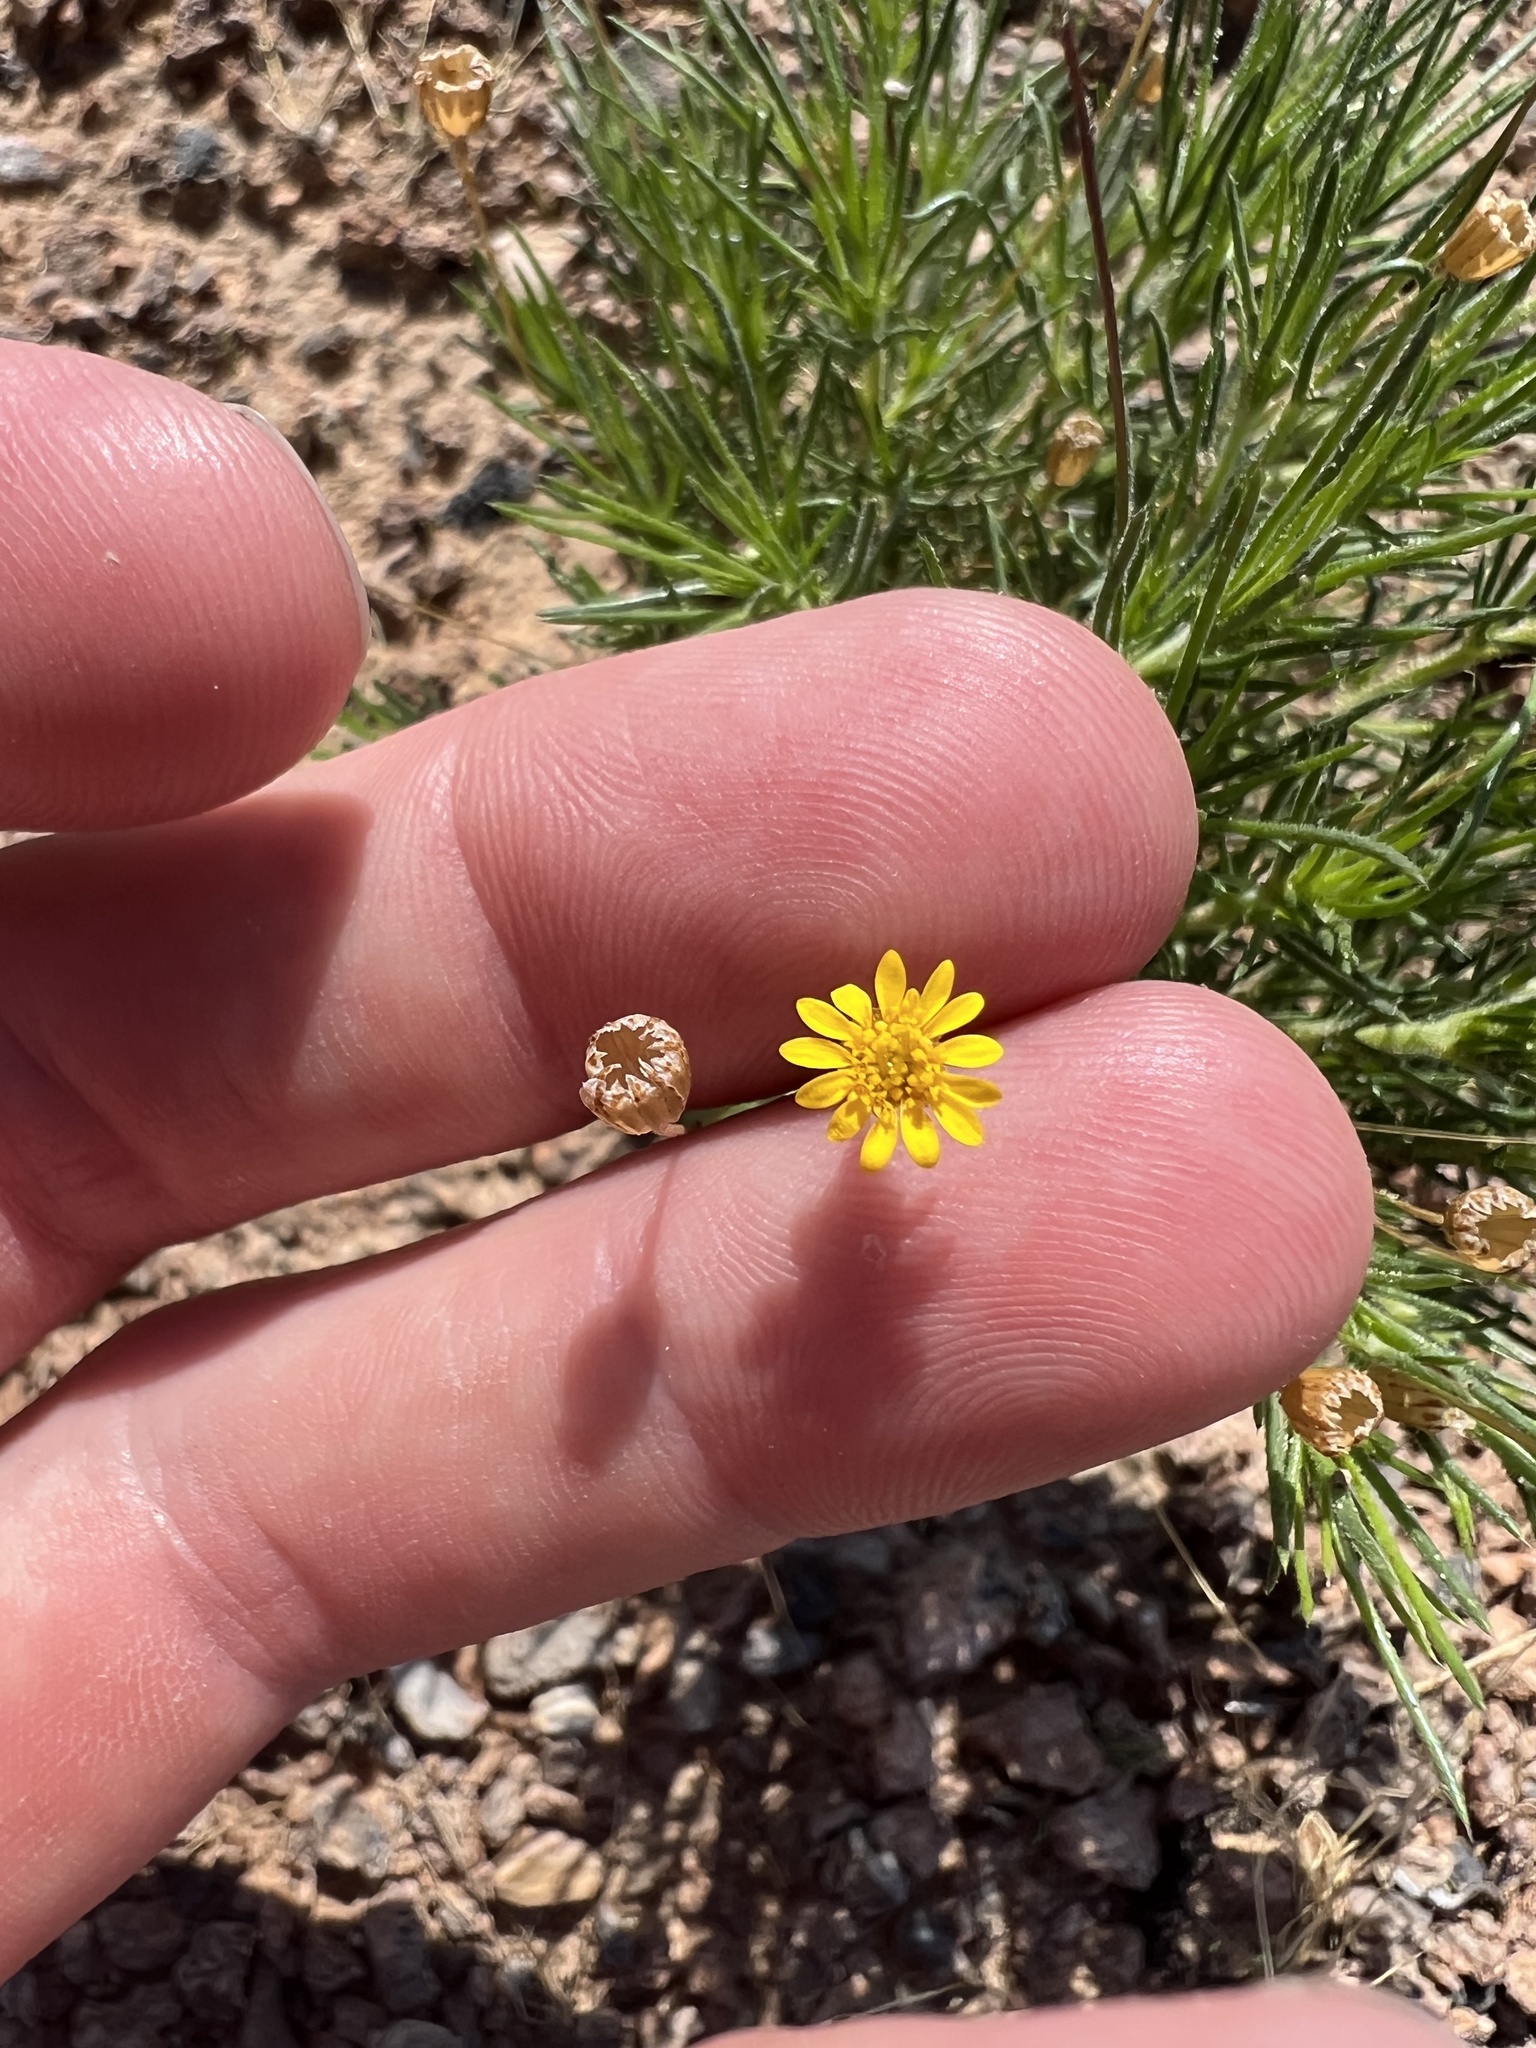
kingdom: Plantae
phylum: Tracheophyta
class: Magnoliopsida
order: Asterales
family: Asteraceae
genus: Thymophylla
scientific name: Thymophylla pentachaeta
